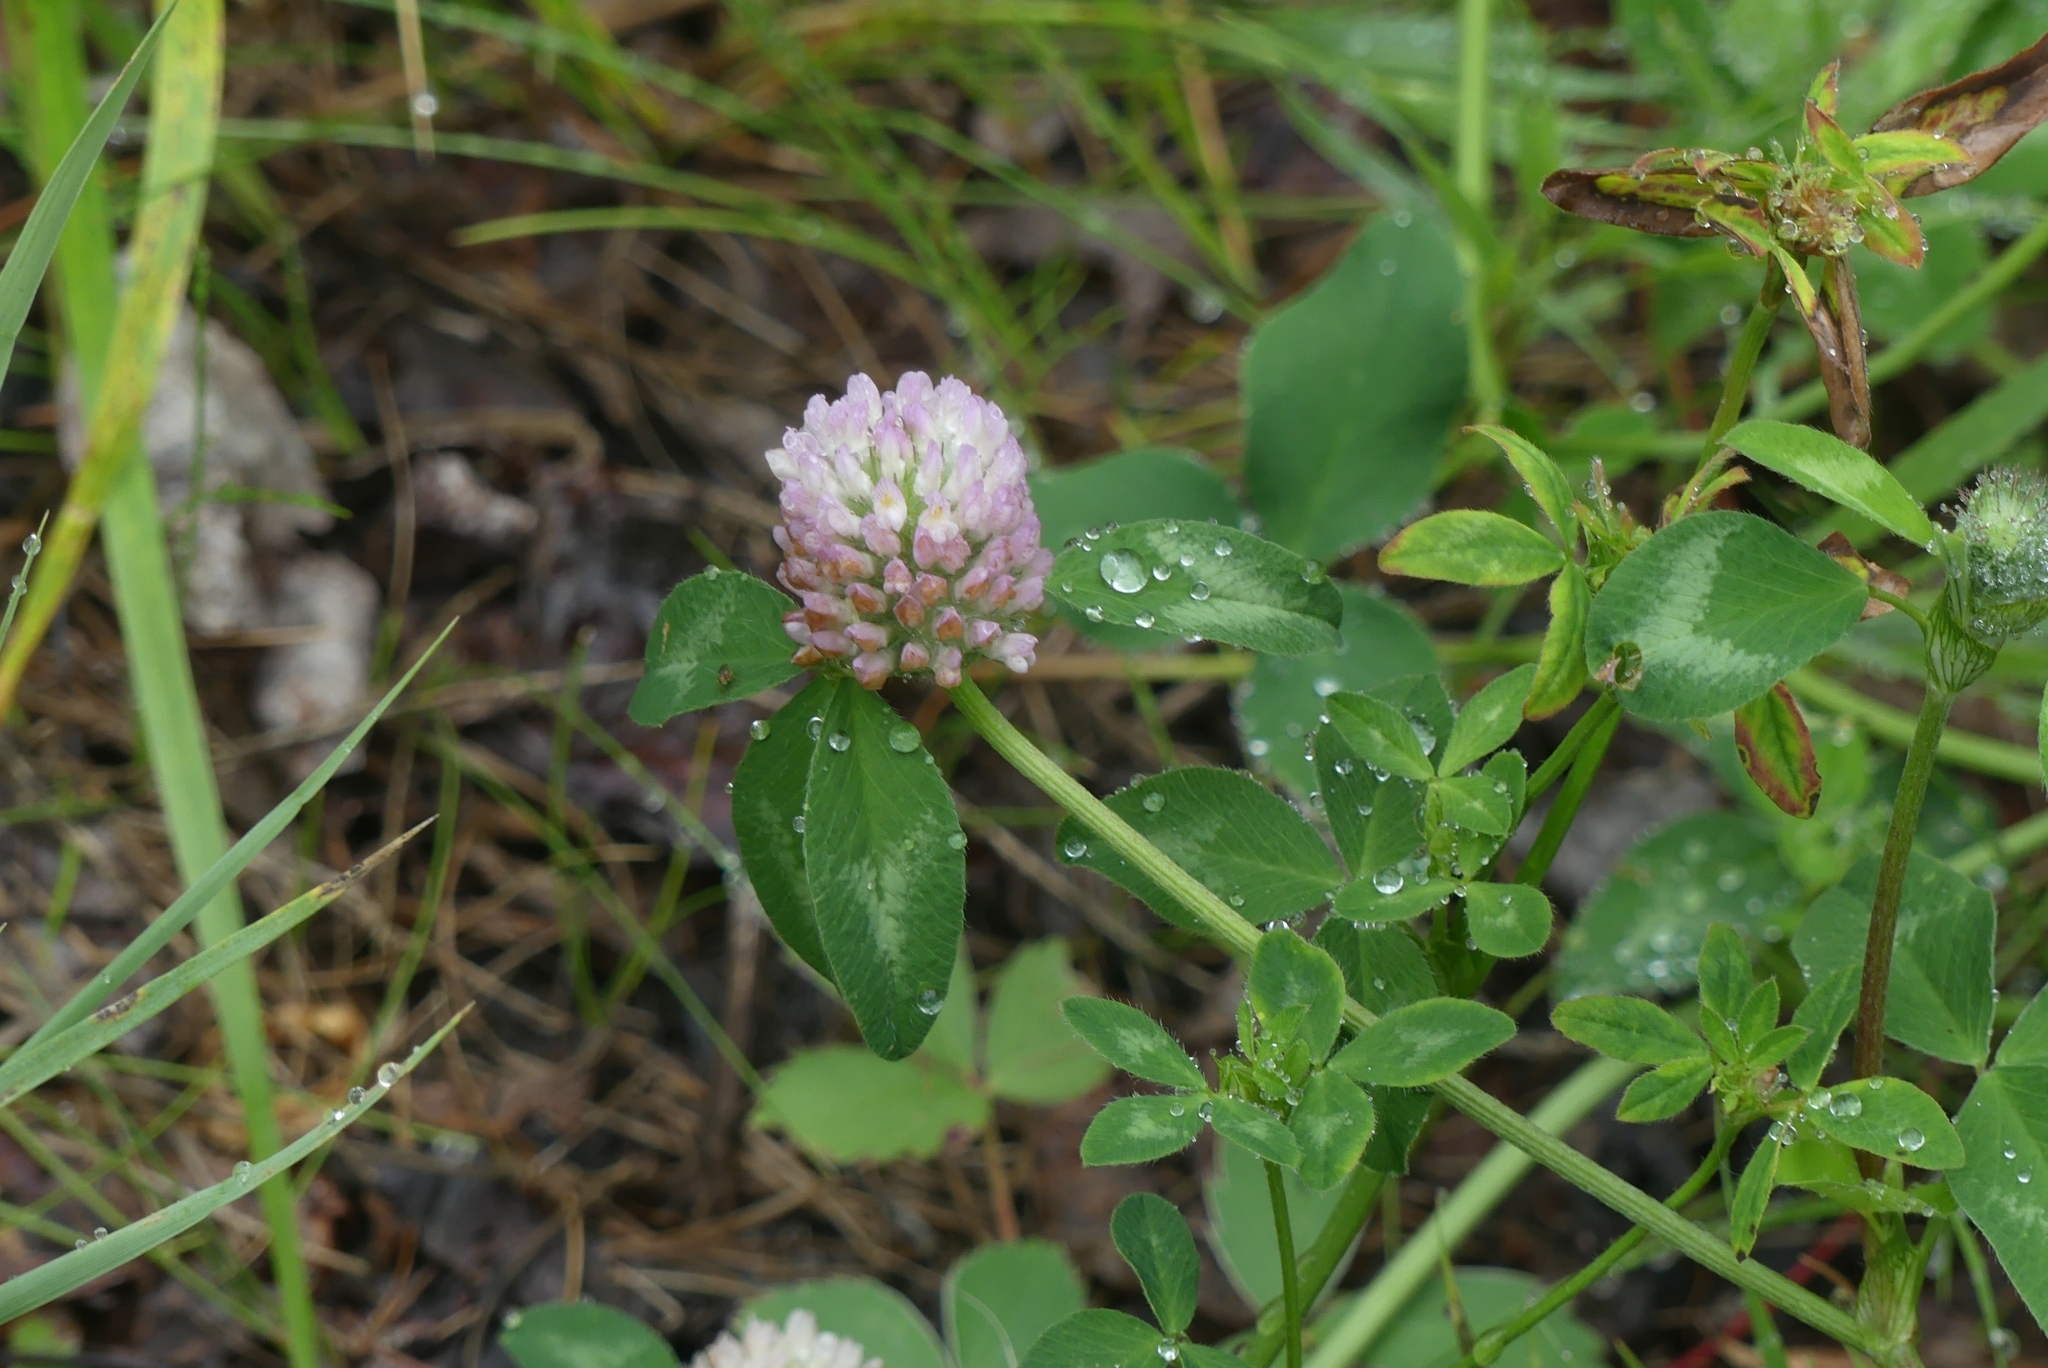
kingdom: Plantae
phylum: Tracheophyta
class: Magnoliopsida
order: Fabales
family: Fabaceae
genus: Trifolium
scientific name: Trifolium pratense
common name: Red clover
